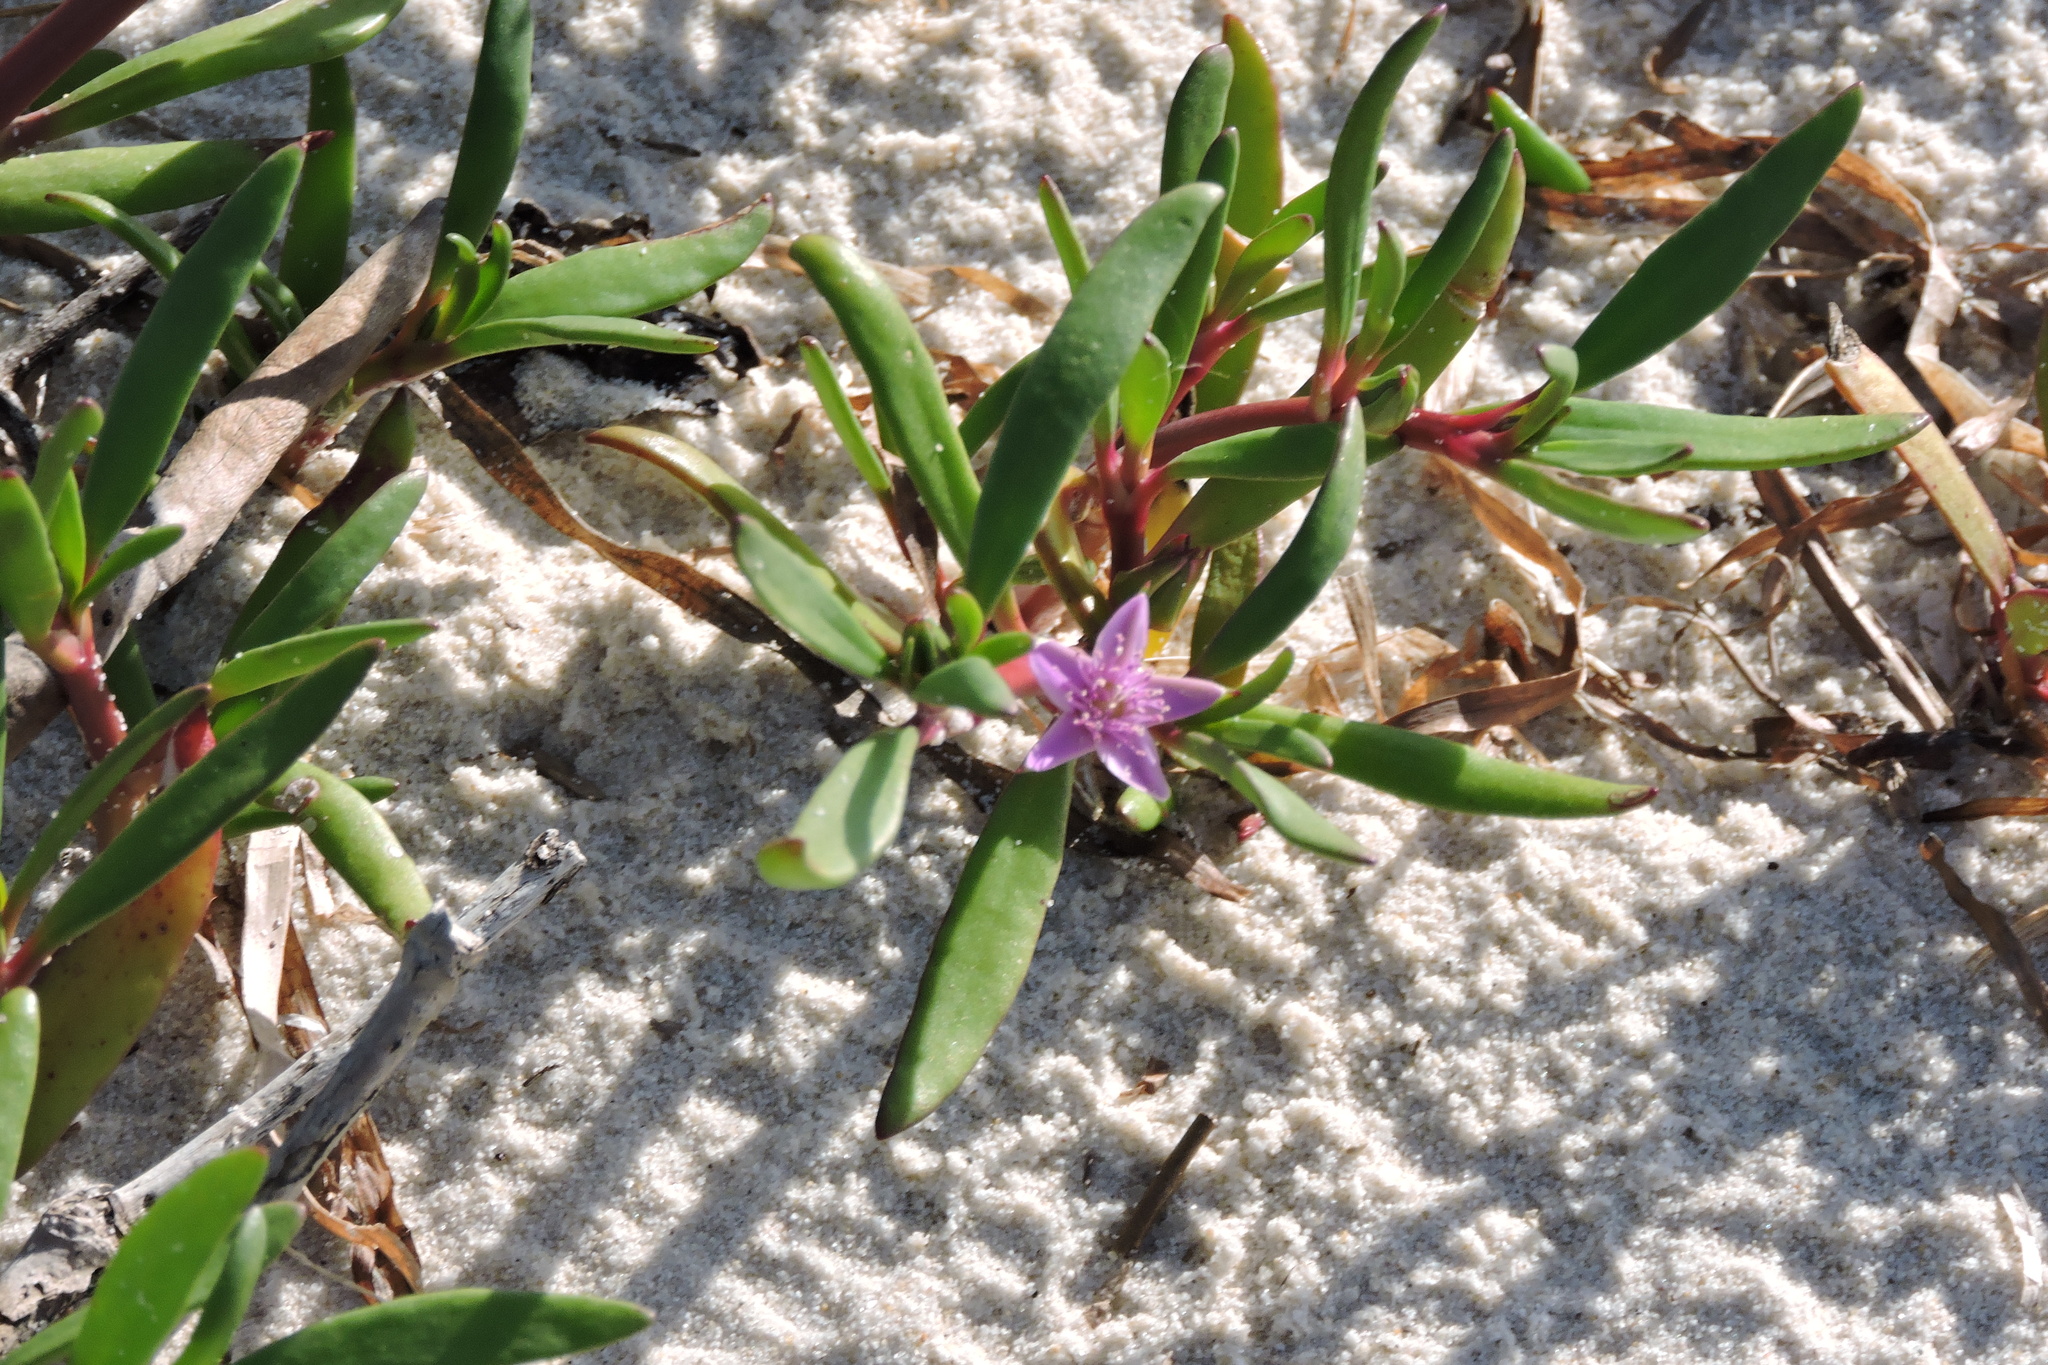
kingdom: Plantae
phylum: Tracheophyta
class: Magnoliopsida
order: Caryophyllales
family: Aizoaceae
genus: Sesuvium
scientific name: Sesuvium portulacastrum
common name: Sea-purslane
